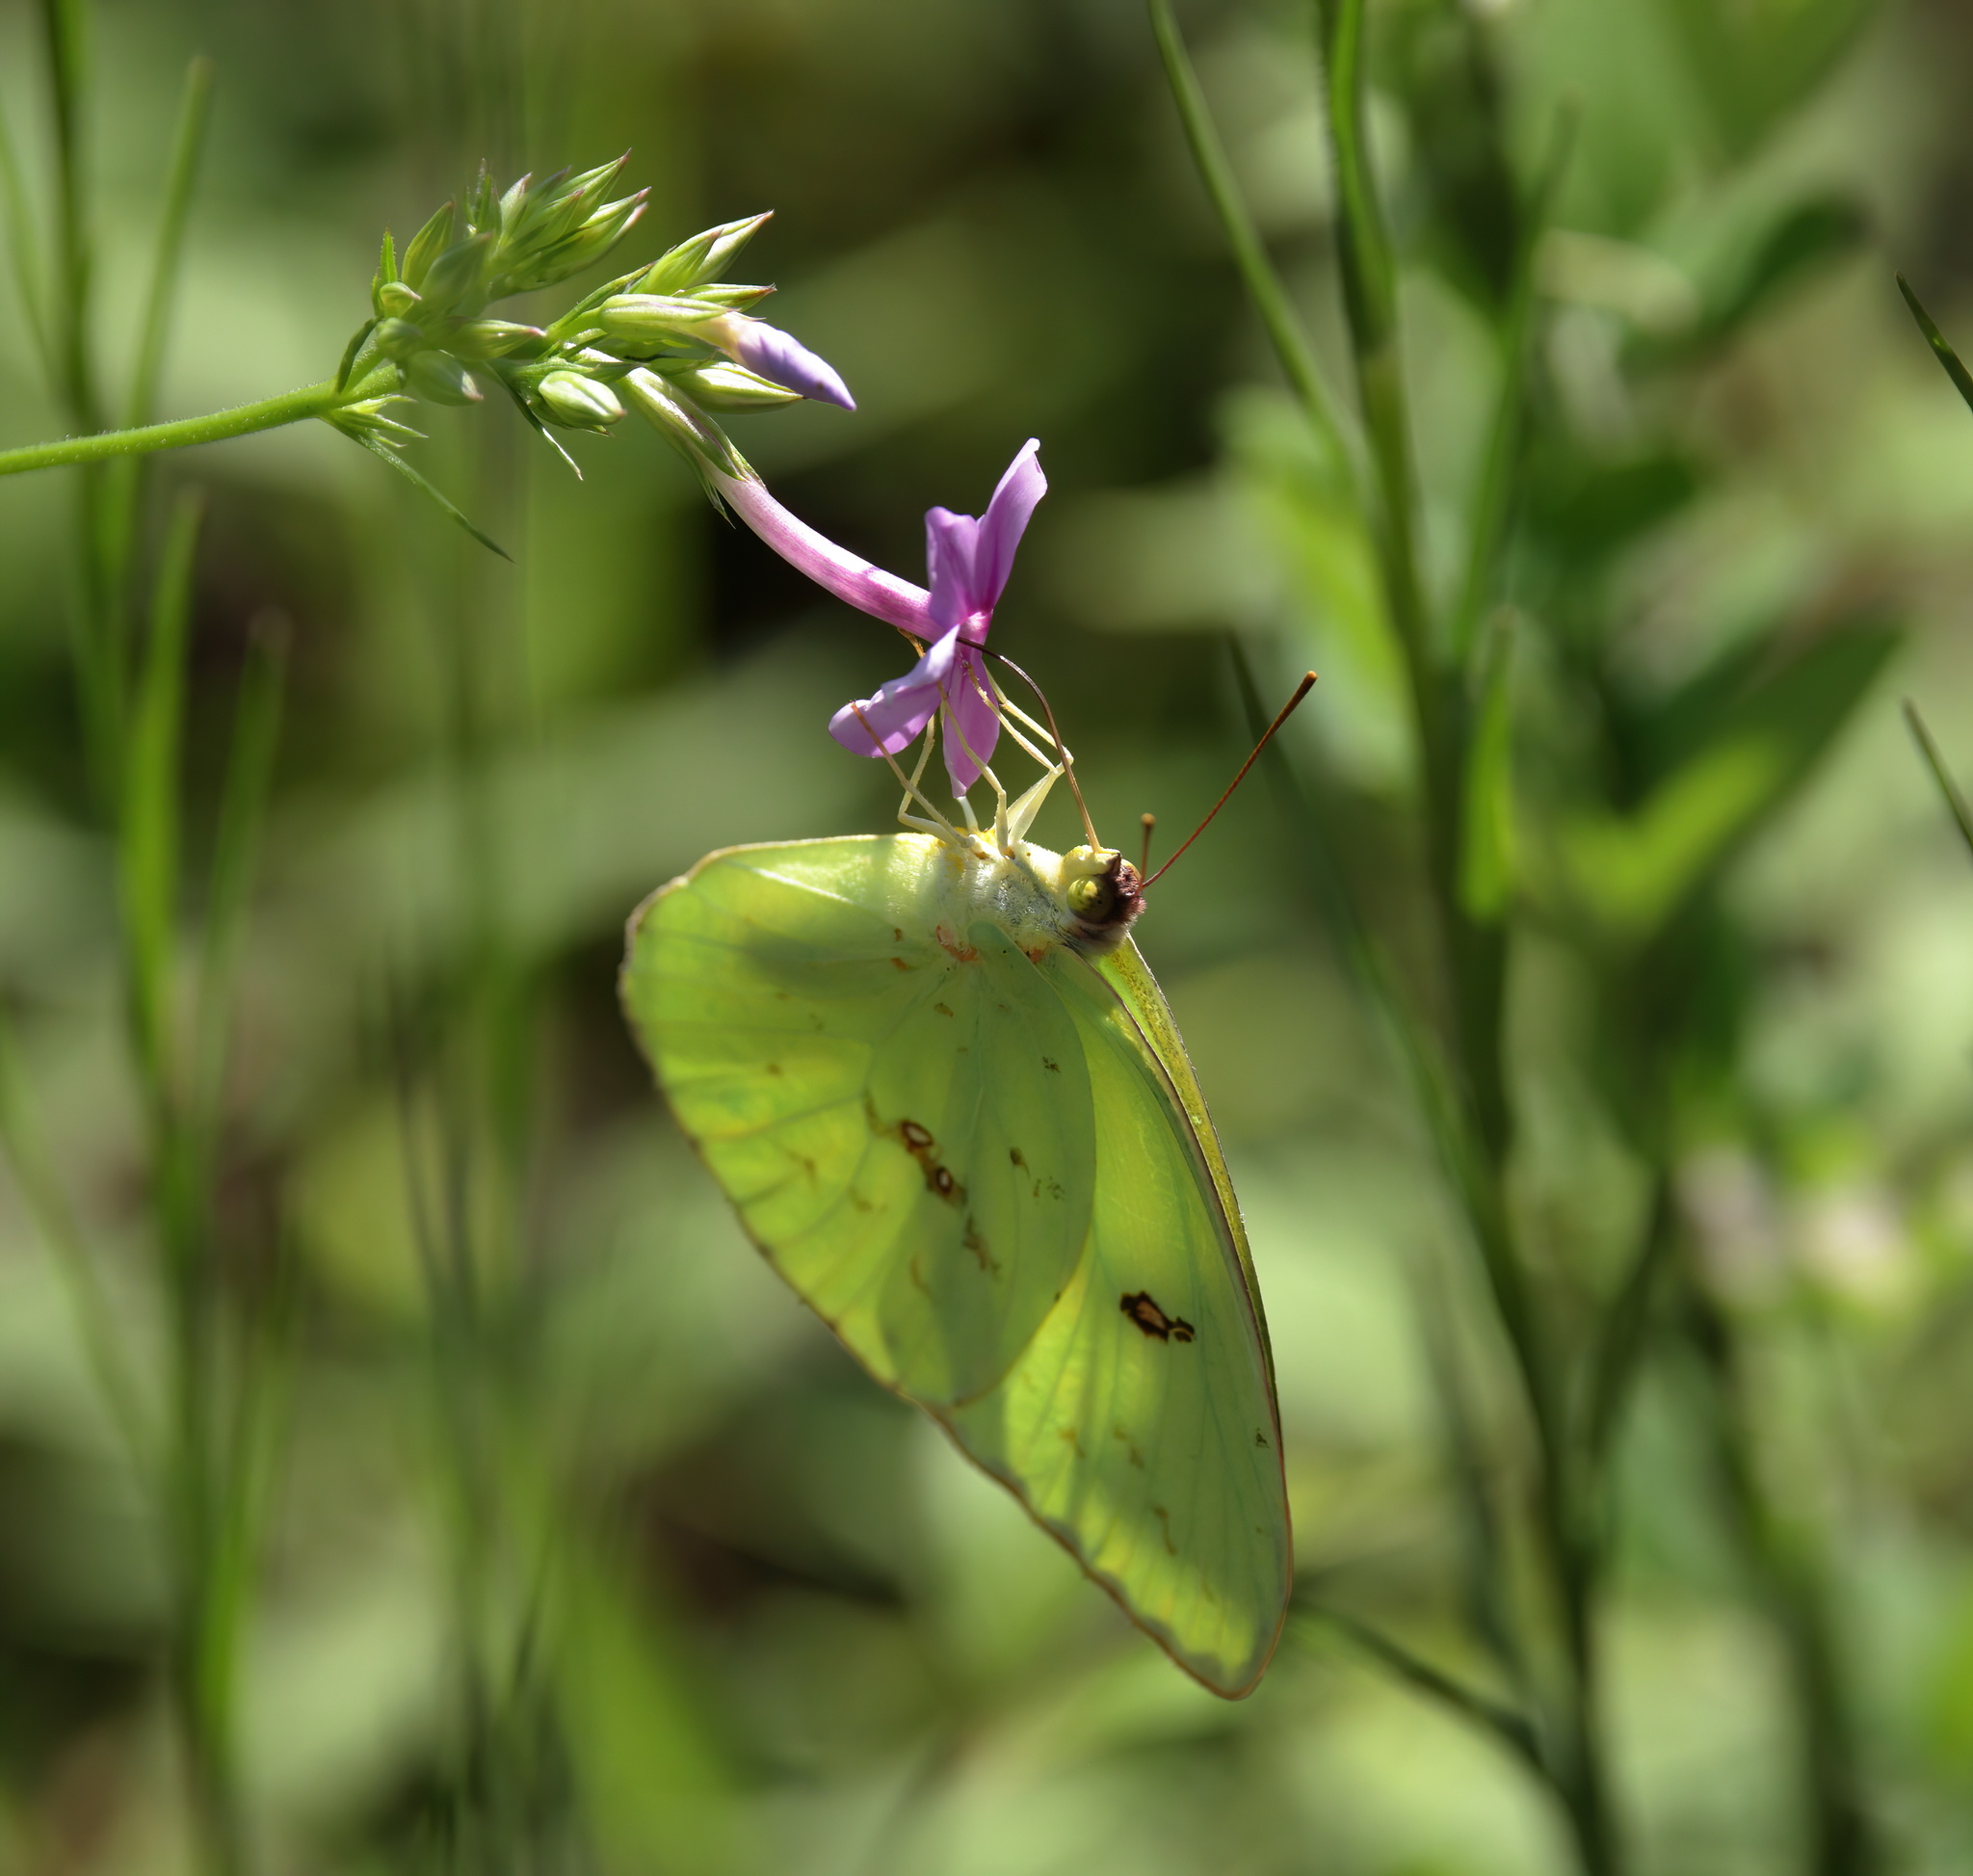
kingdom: Animalia
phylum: Arthropoda
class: Insecta
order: Lepidoptera
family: Pieridae
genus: Phoebis
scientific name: Phoebis sennae
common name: Cloudless sulphur
